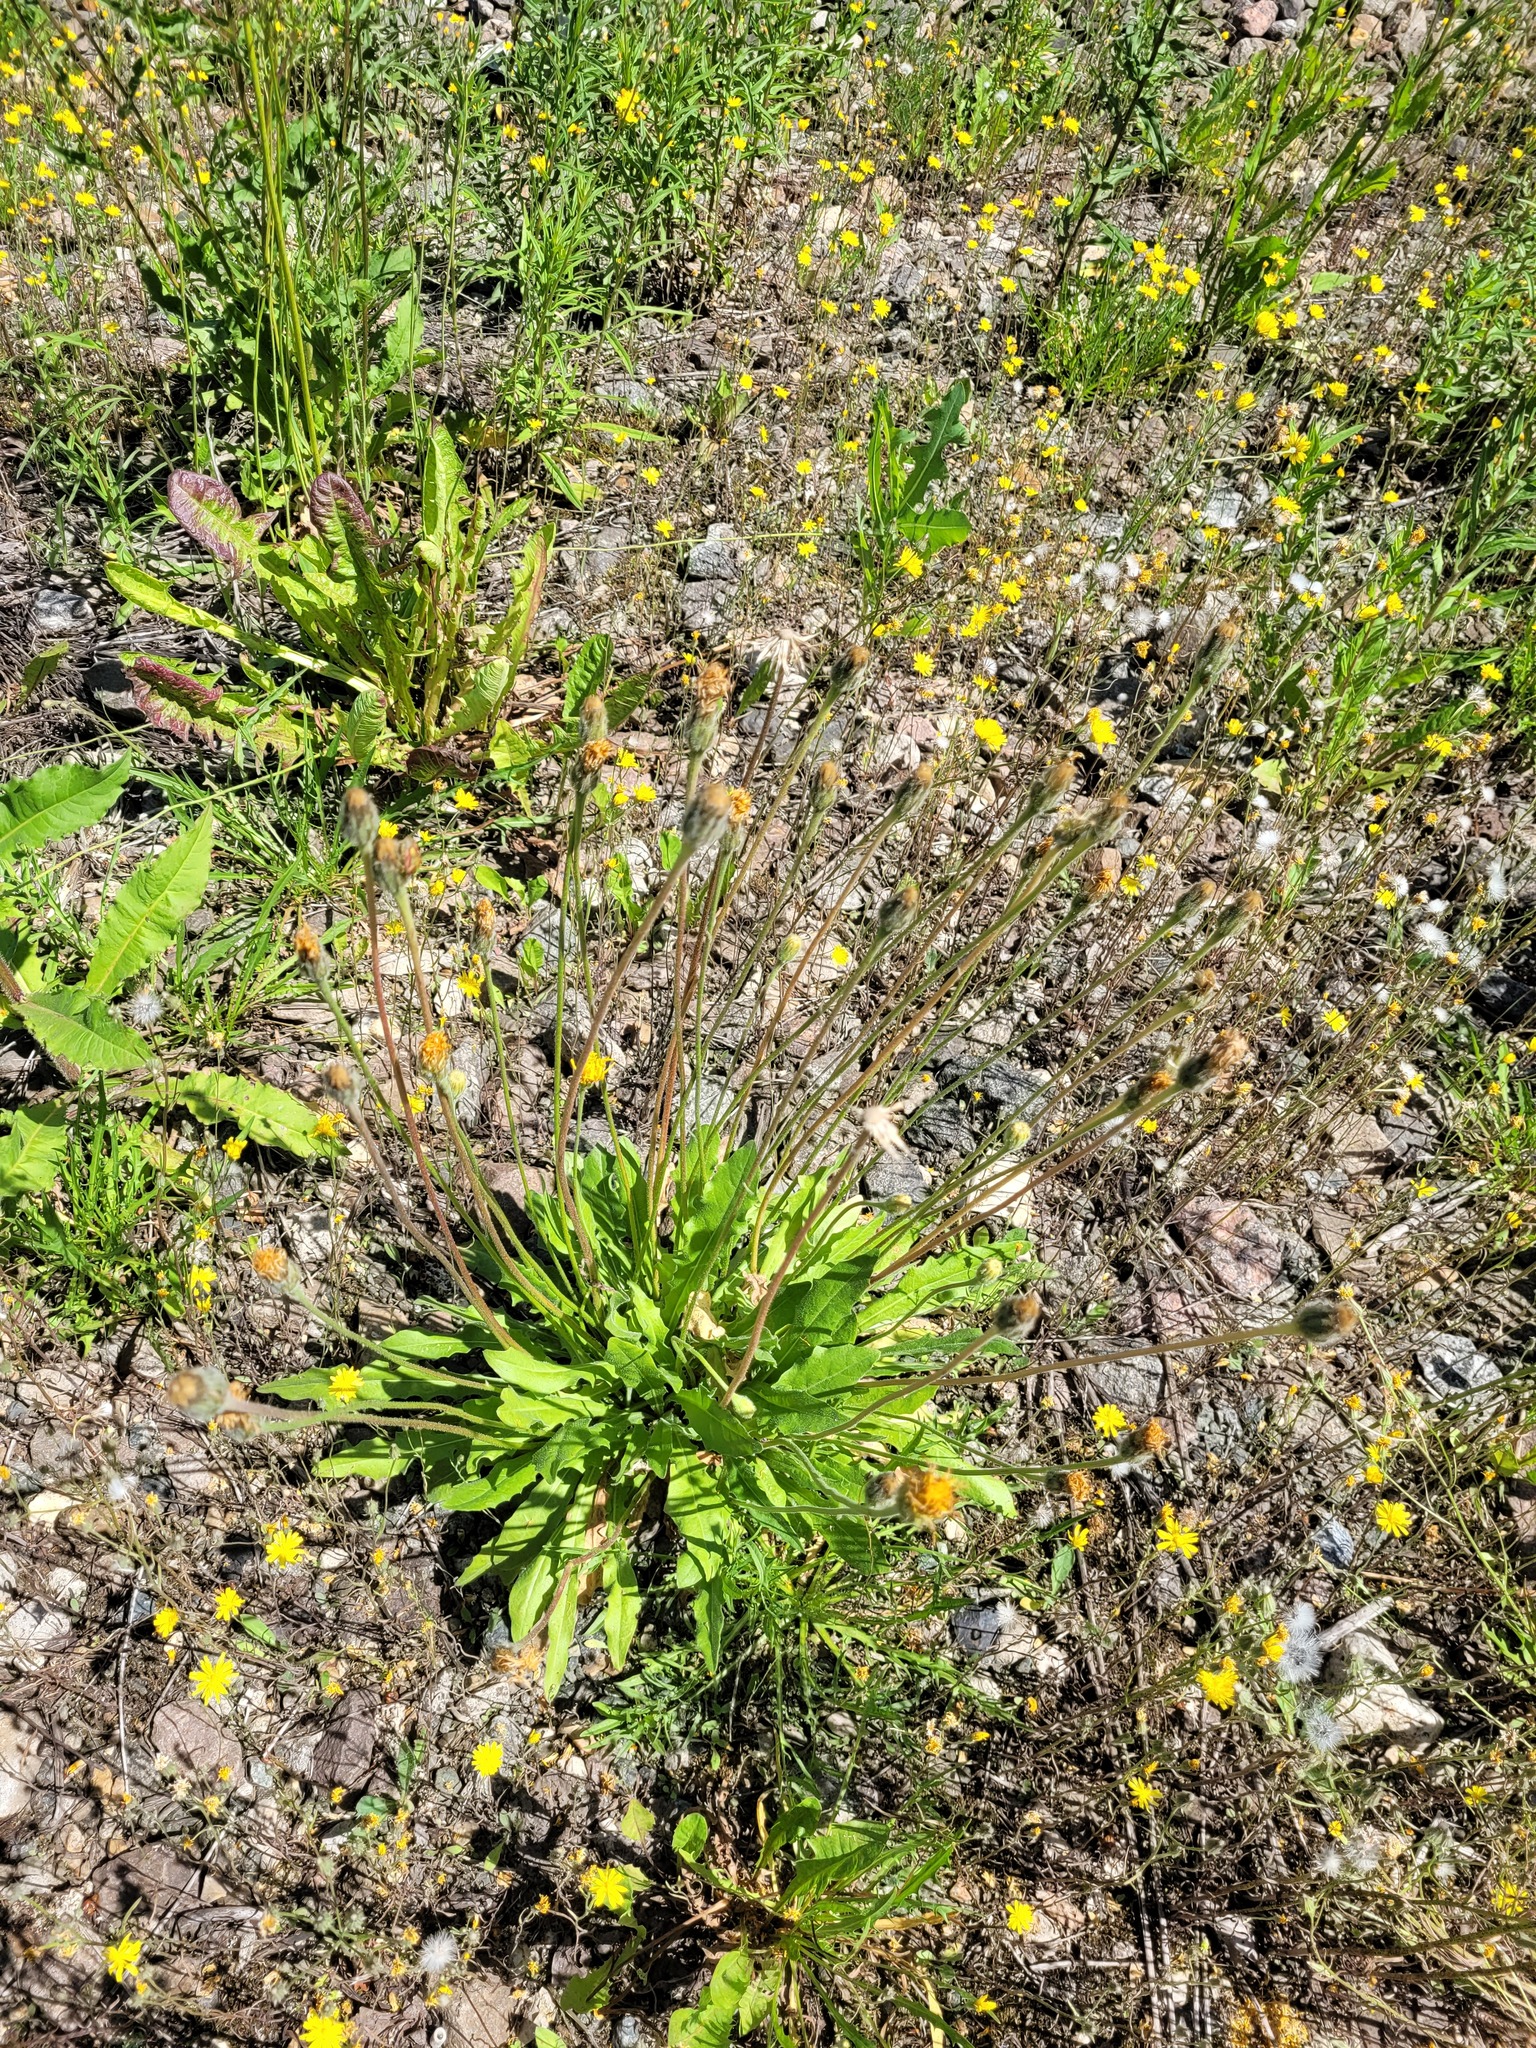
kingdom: Plantae
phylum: Tracheophyta
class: Magnoliopsida
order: Asterales
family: Asteraceae
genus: Leontodon
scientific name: Leontodon hispidus
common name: Rough hawkbit
